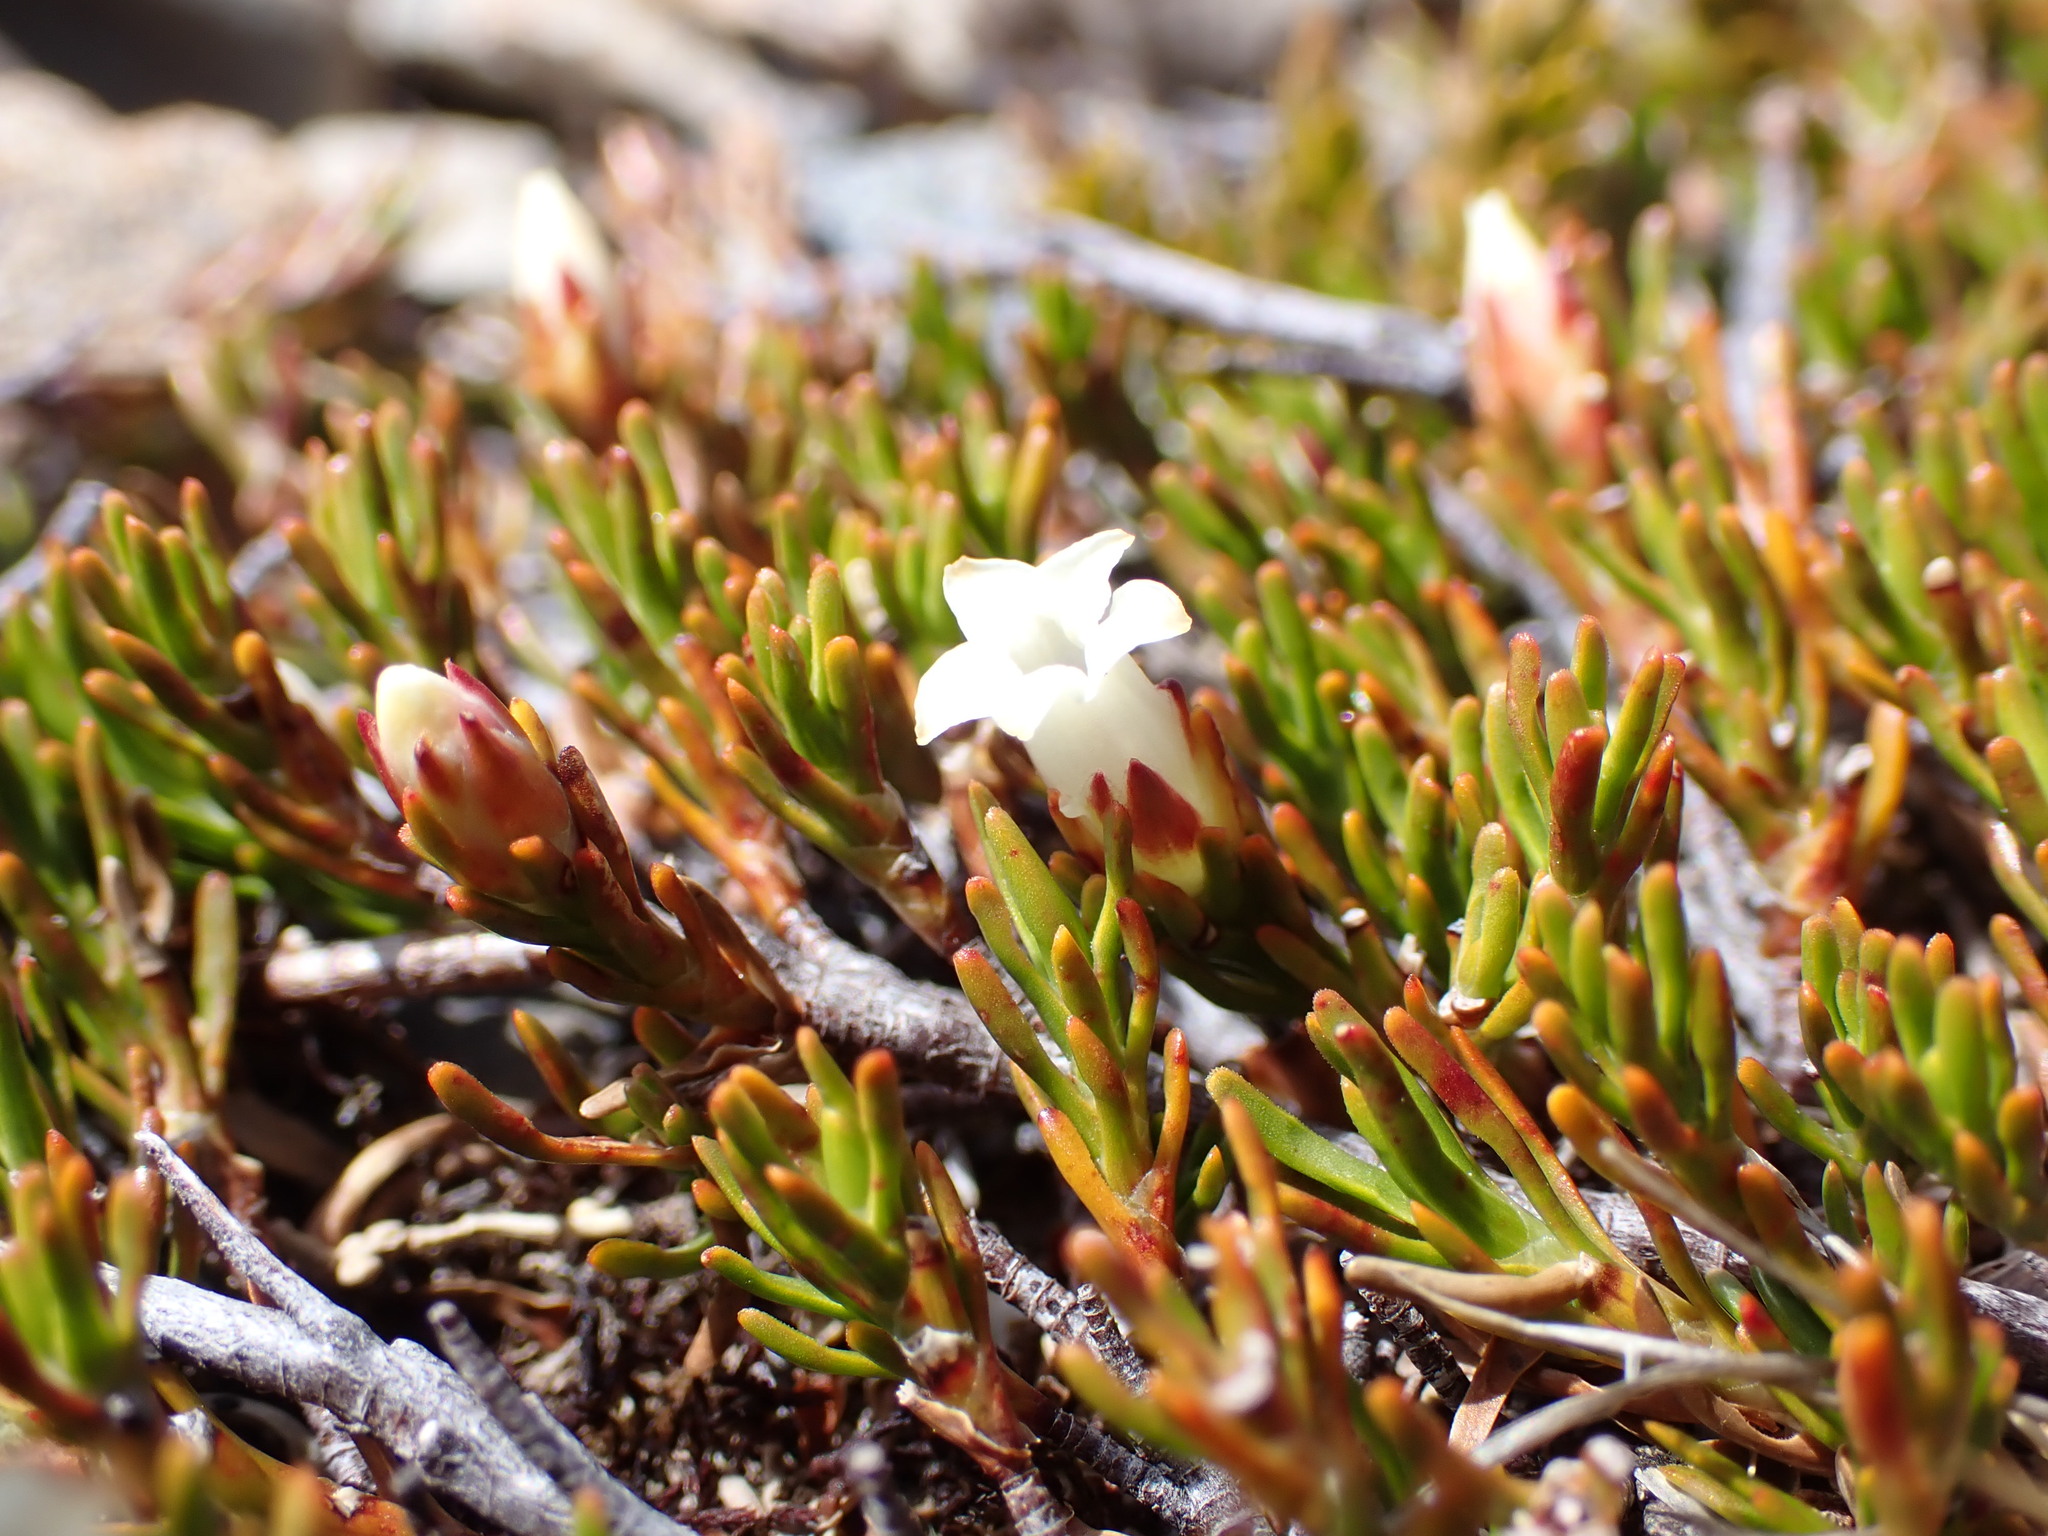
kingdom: Plantae
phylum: Tracheophyta
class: Magnoliopsida
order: Ericales
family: Ericaceae
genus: Dracophyllum
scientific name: Dracophyllum pronum
